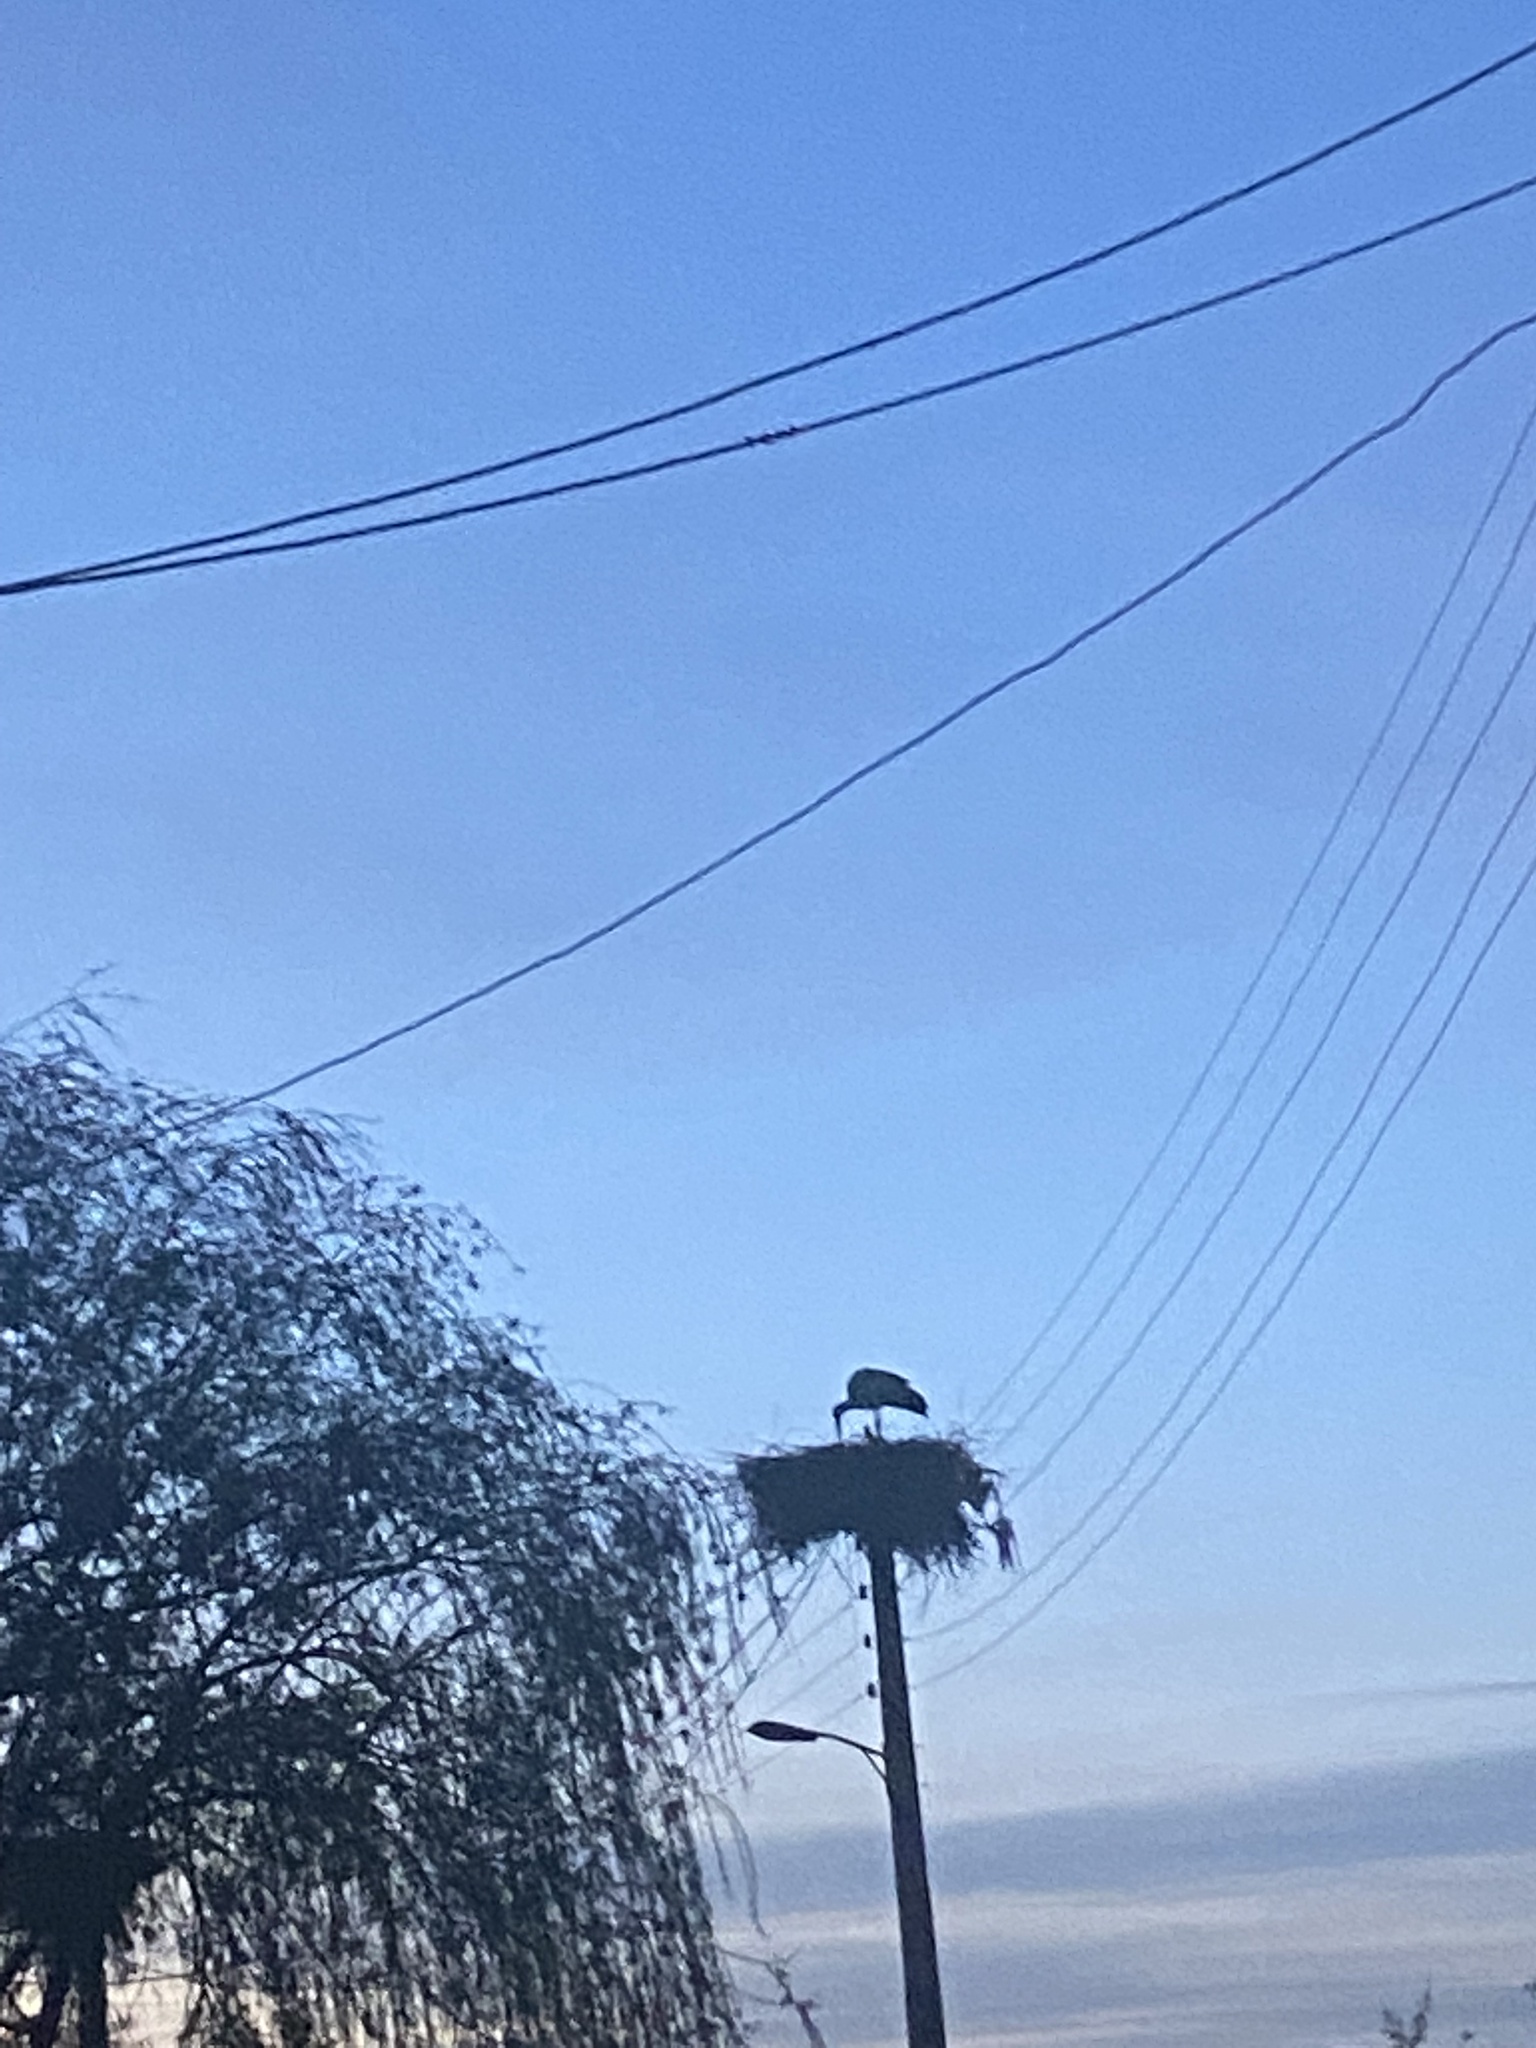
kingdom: Animalia
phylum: Chordata
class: Aves
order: Ciconiiformes
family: Ciconiidae
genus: Ciconia
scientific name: Ciconia ciconia
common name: White stork
